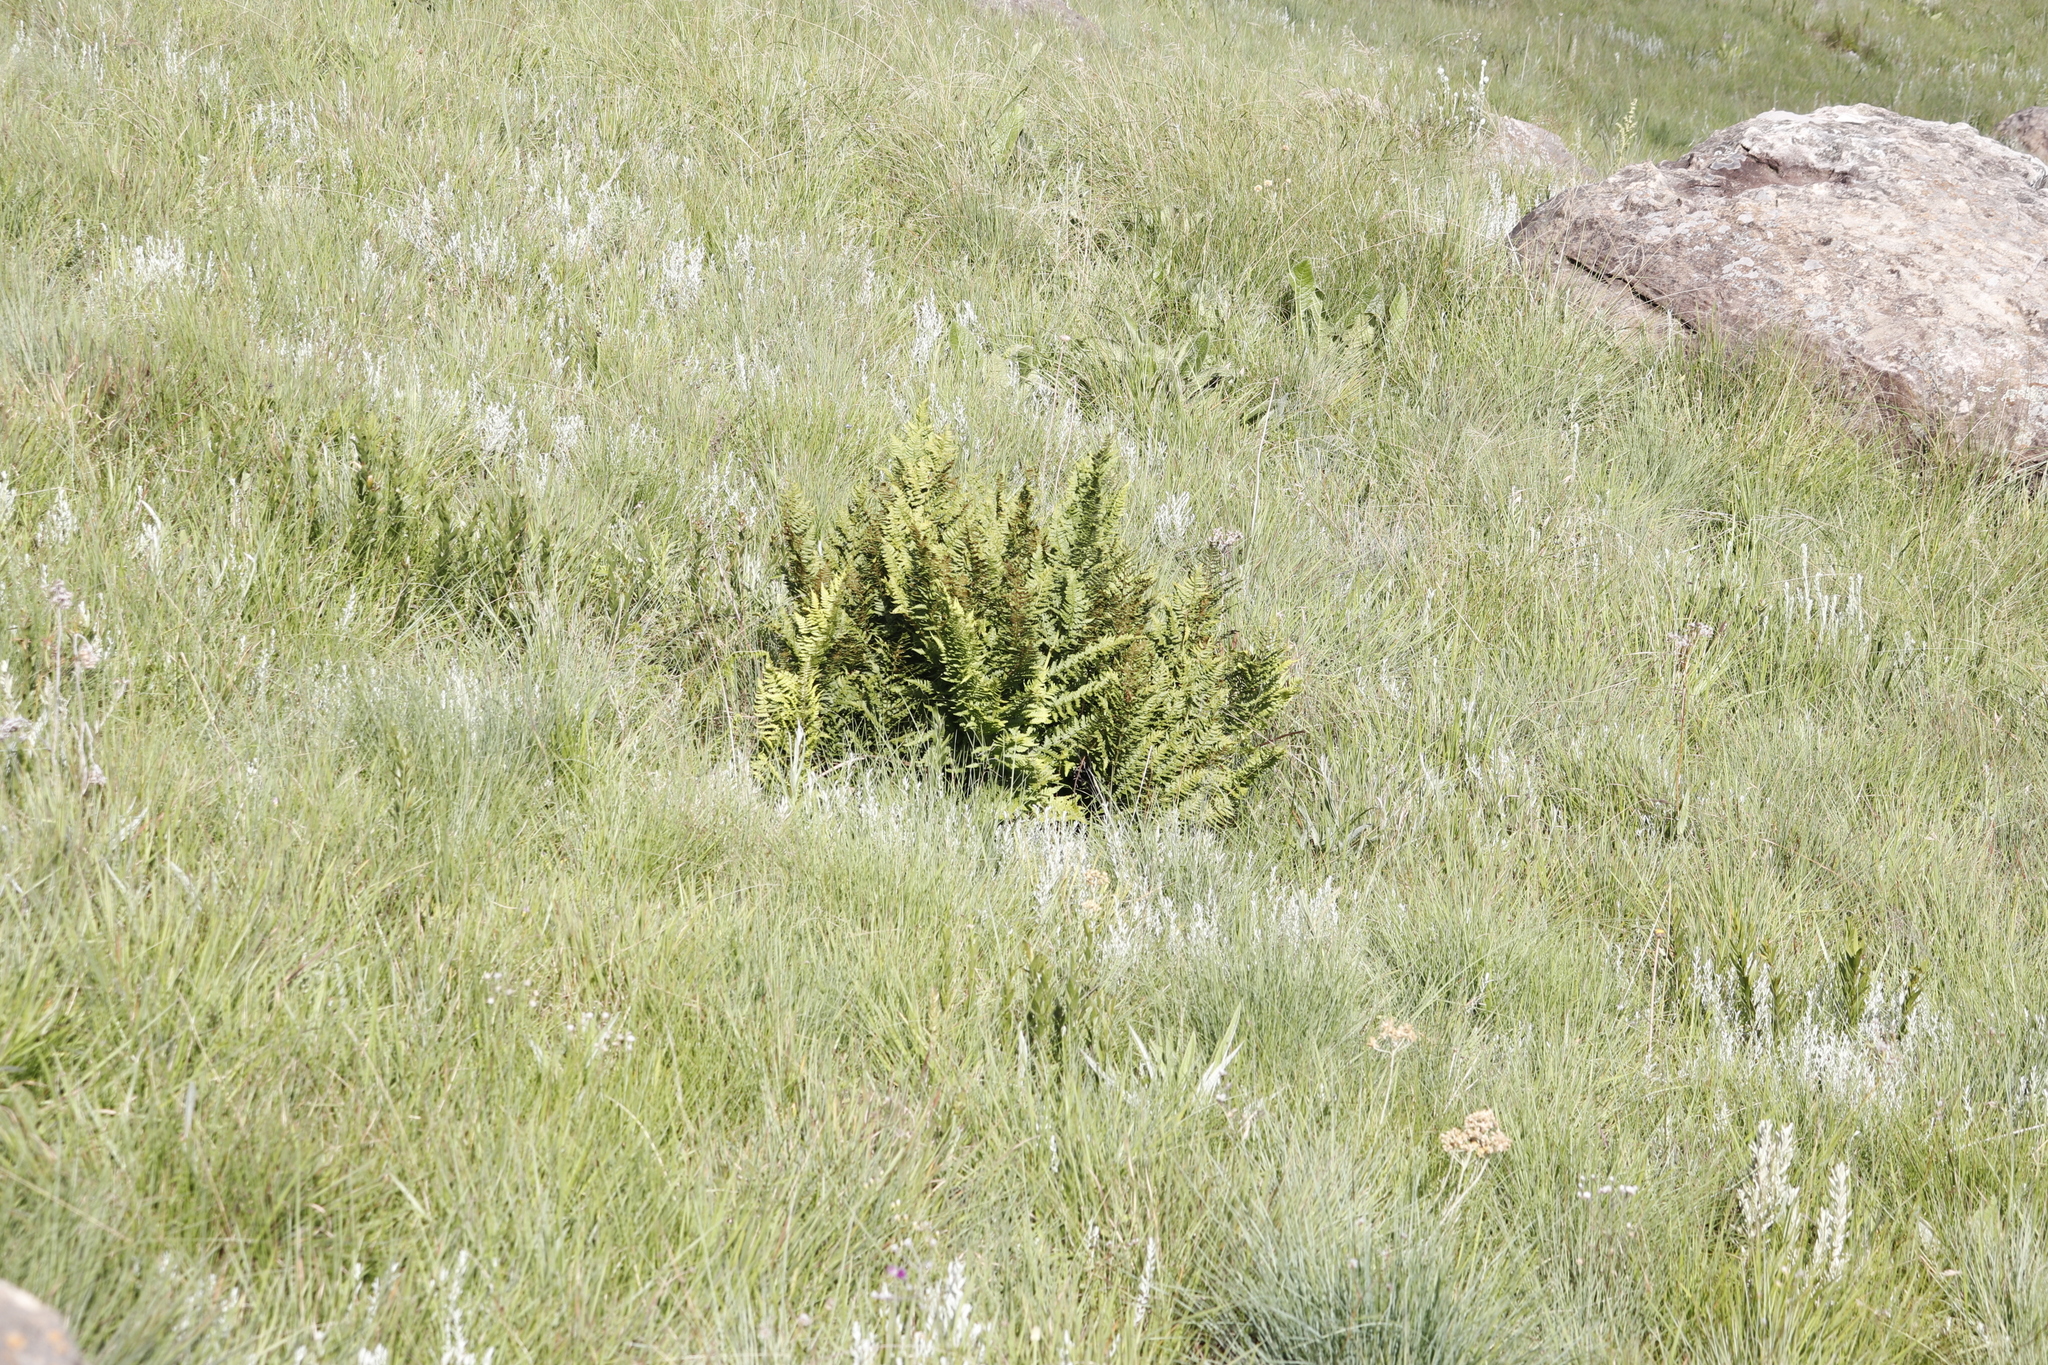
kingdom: Plantae
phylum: Tracheophyta
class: Polypodiopsida
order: Polypodiales
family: Dryopteridaceae
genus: Dryopteris
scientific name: Dryopteris athamantica
